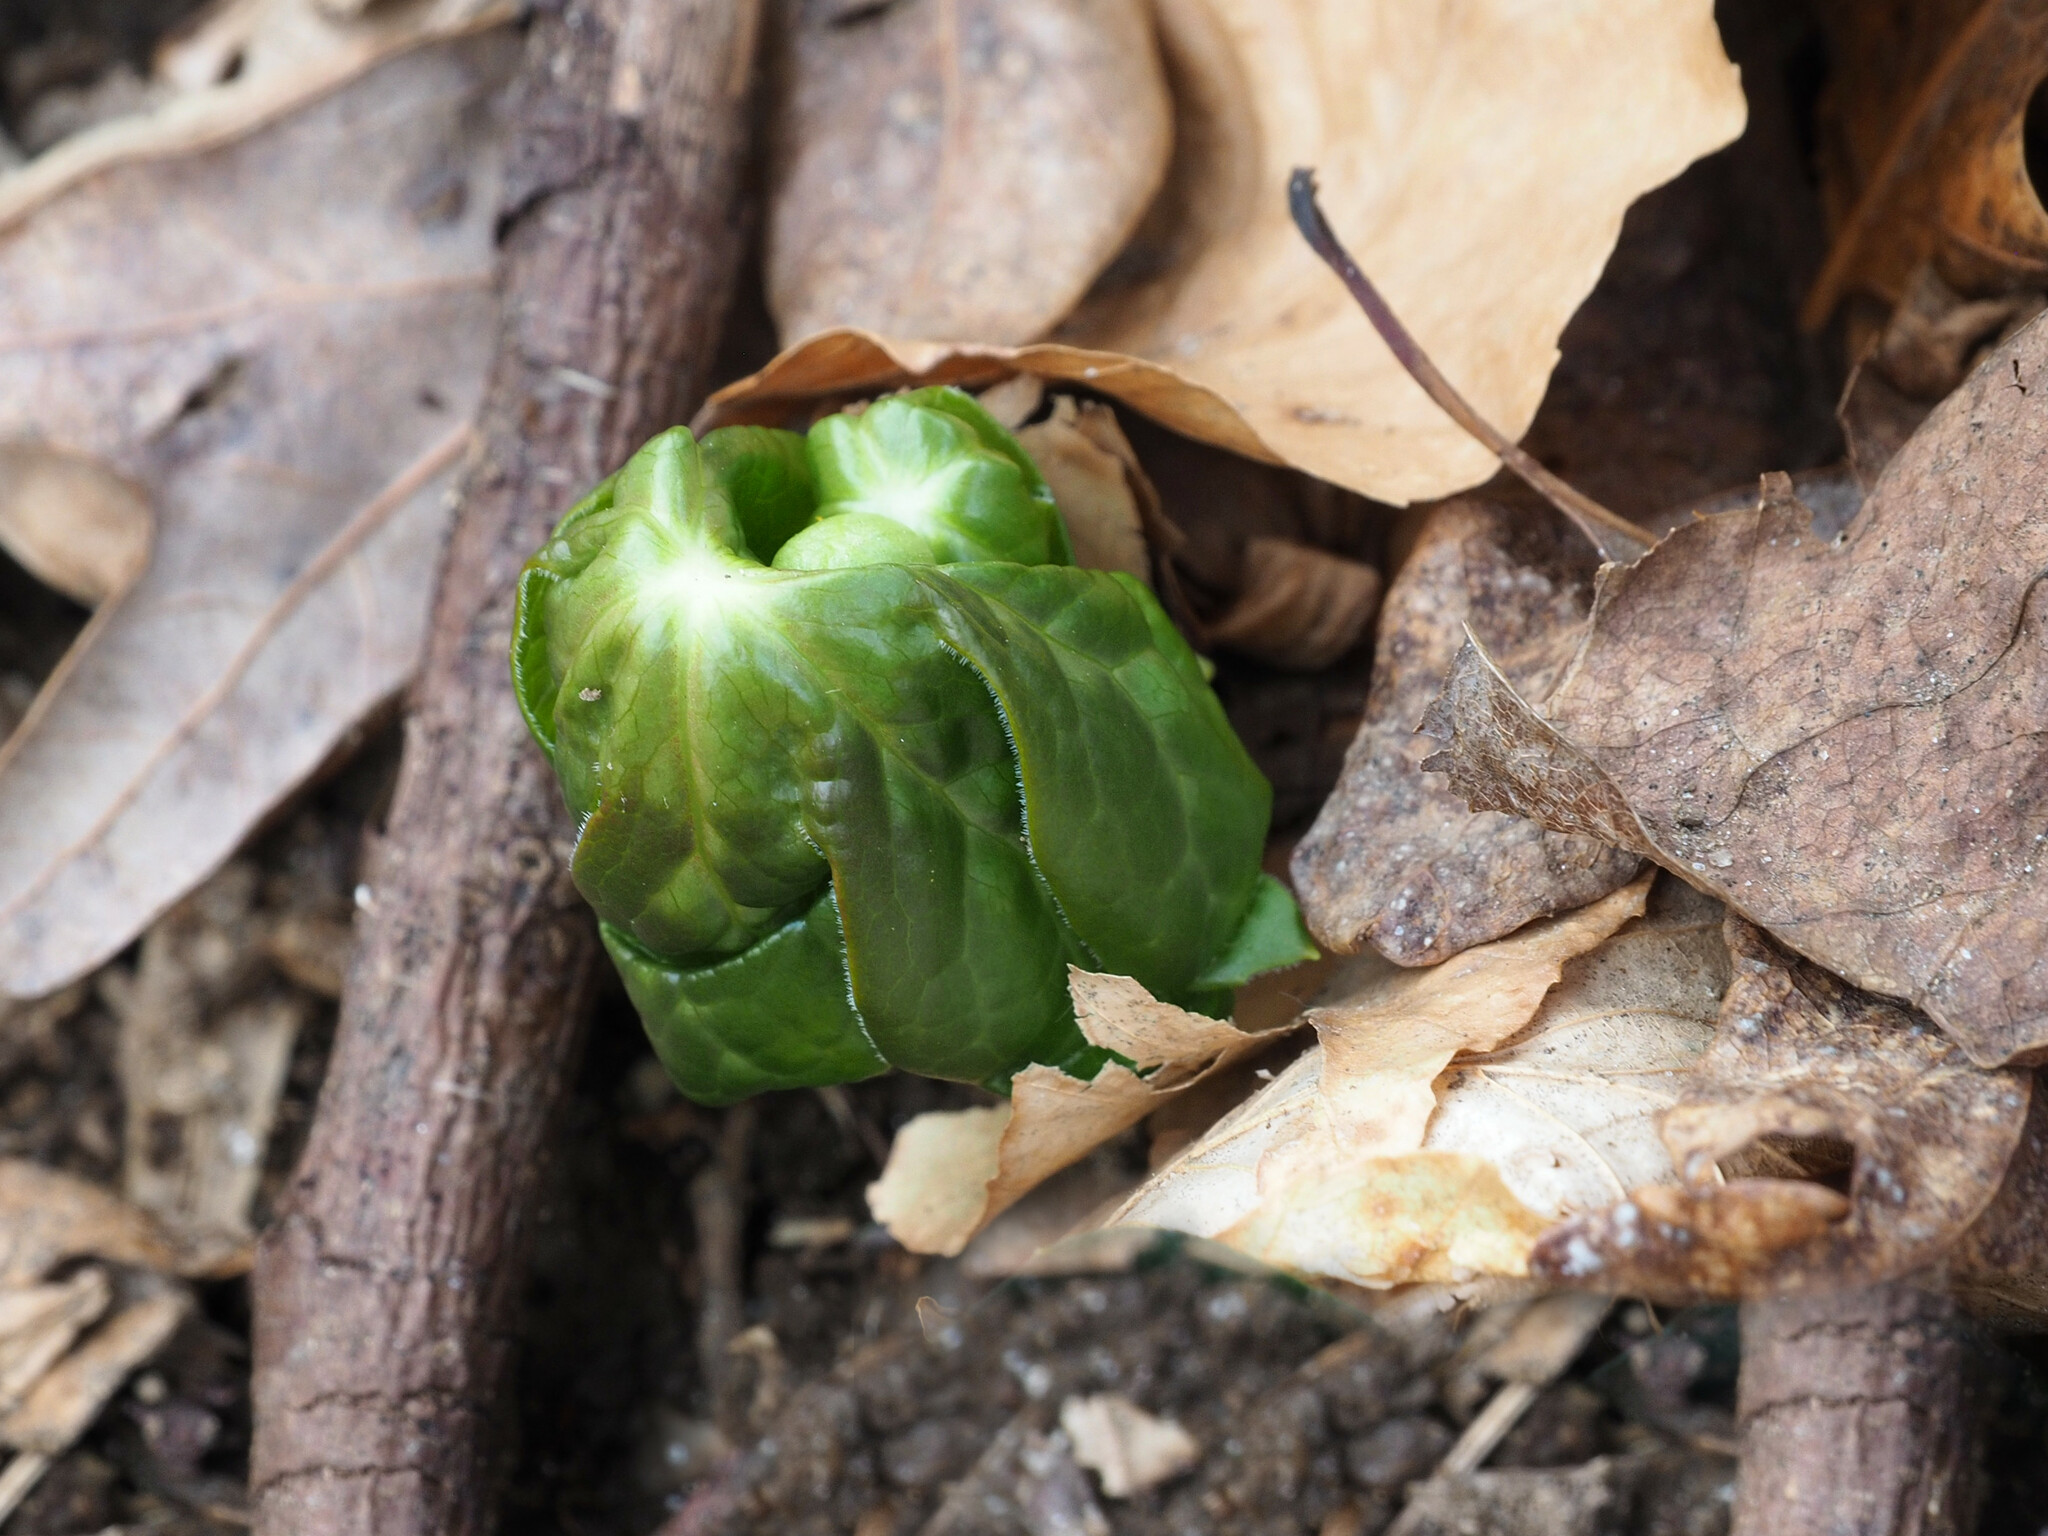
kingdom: Plantae
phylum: Tracheophyta
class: Magnoliopsida
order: Ranunculales
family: Berberidaceae
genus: Podophyllum
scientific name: Podophyllum peltatum
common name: Wild mandrake
